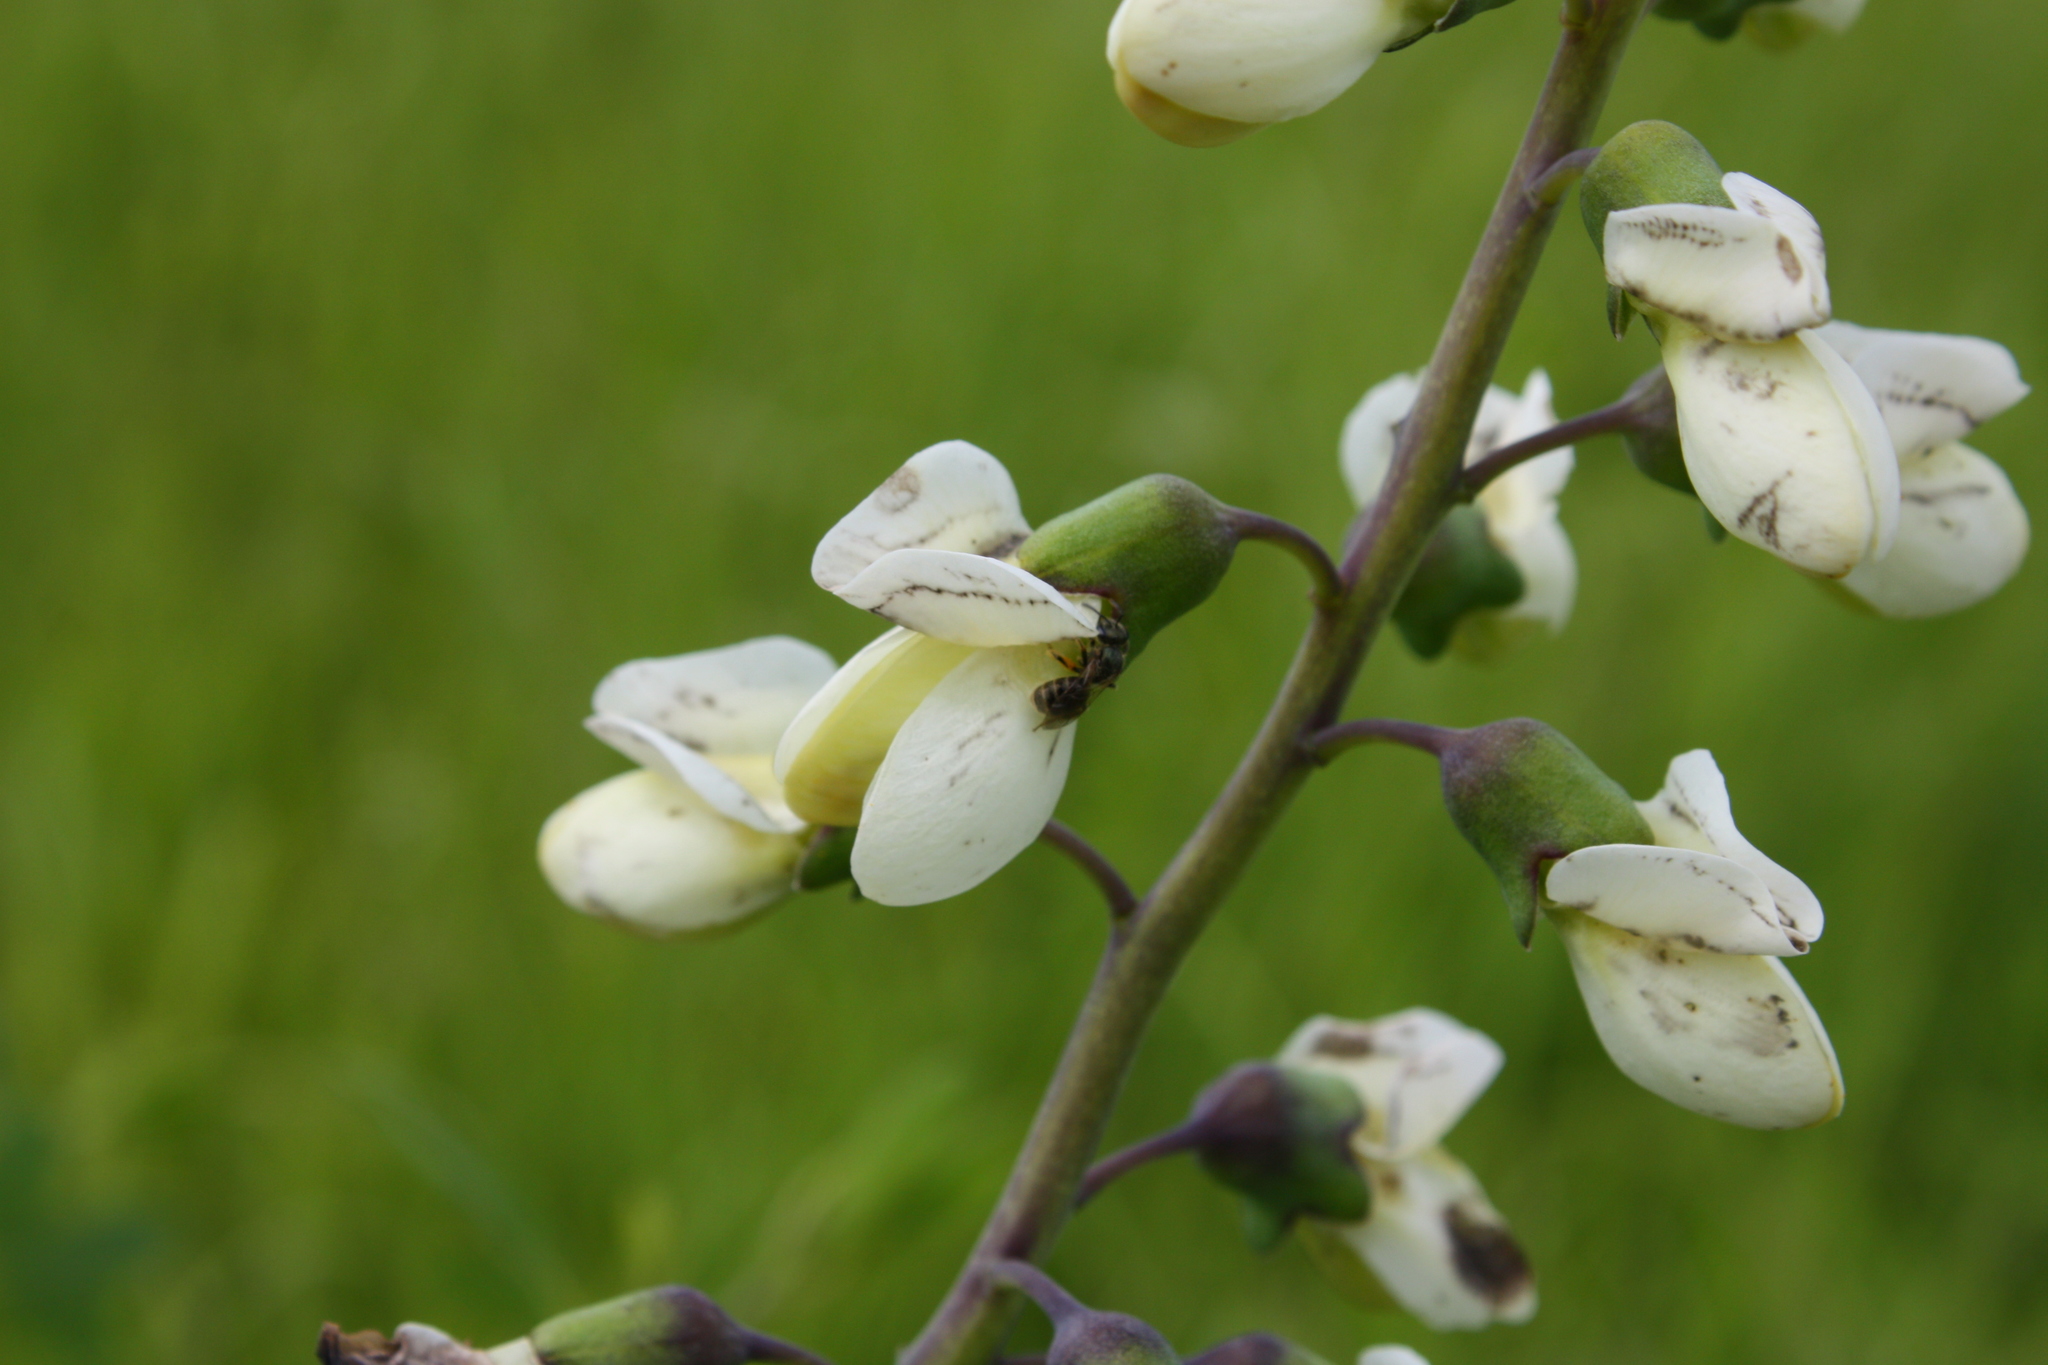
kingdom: Plantae
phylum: Tracheophyta
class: Magnoliopsida
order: Fabales
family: Fabaceae
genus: Baptisia
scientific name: Baptisia alba
